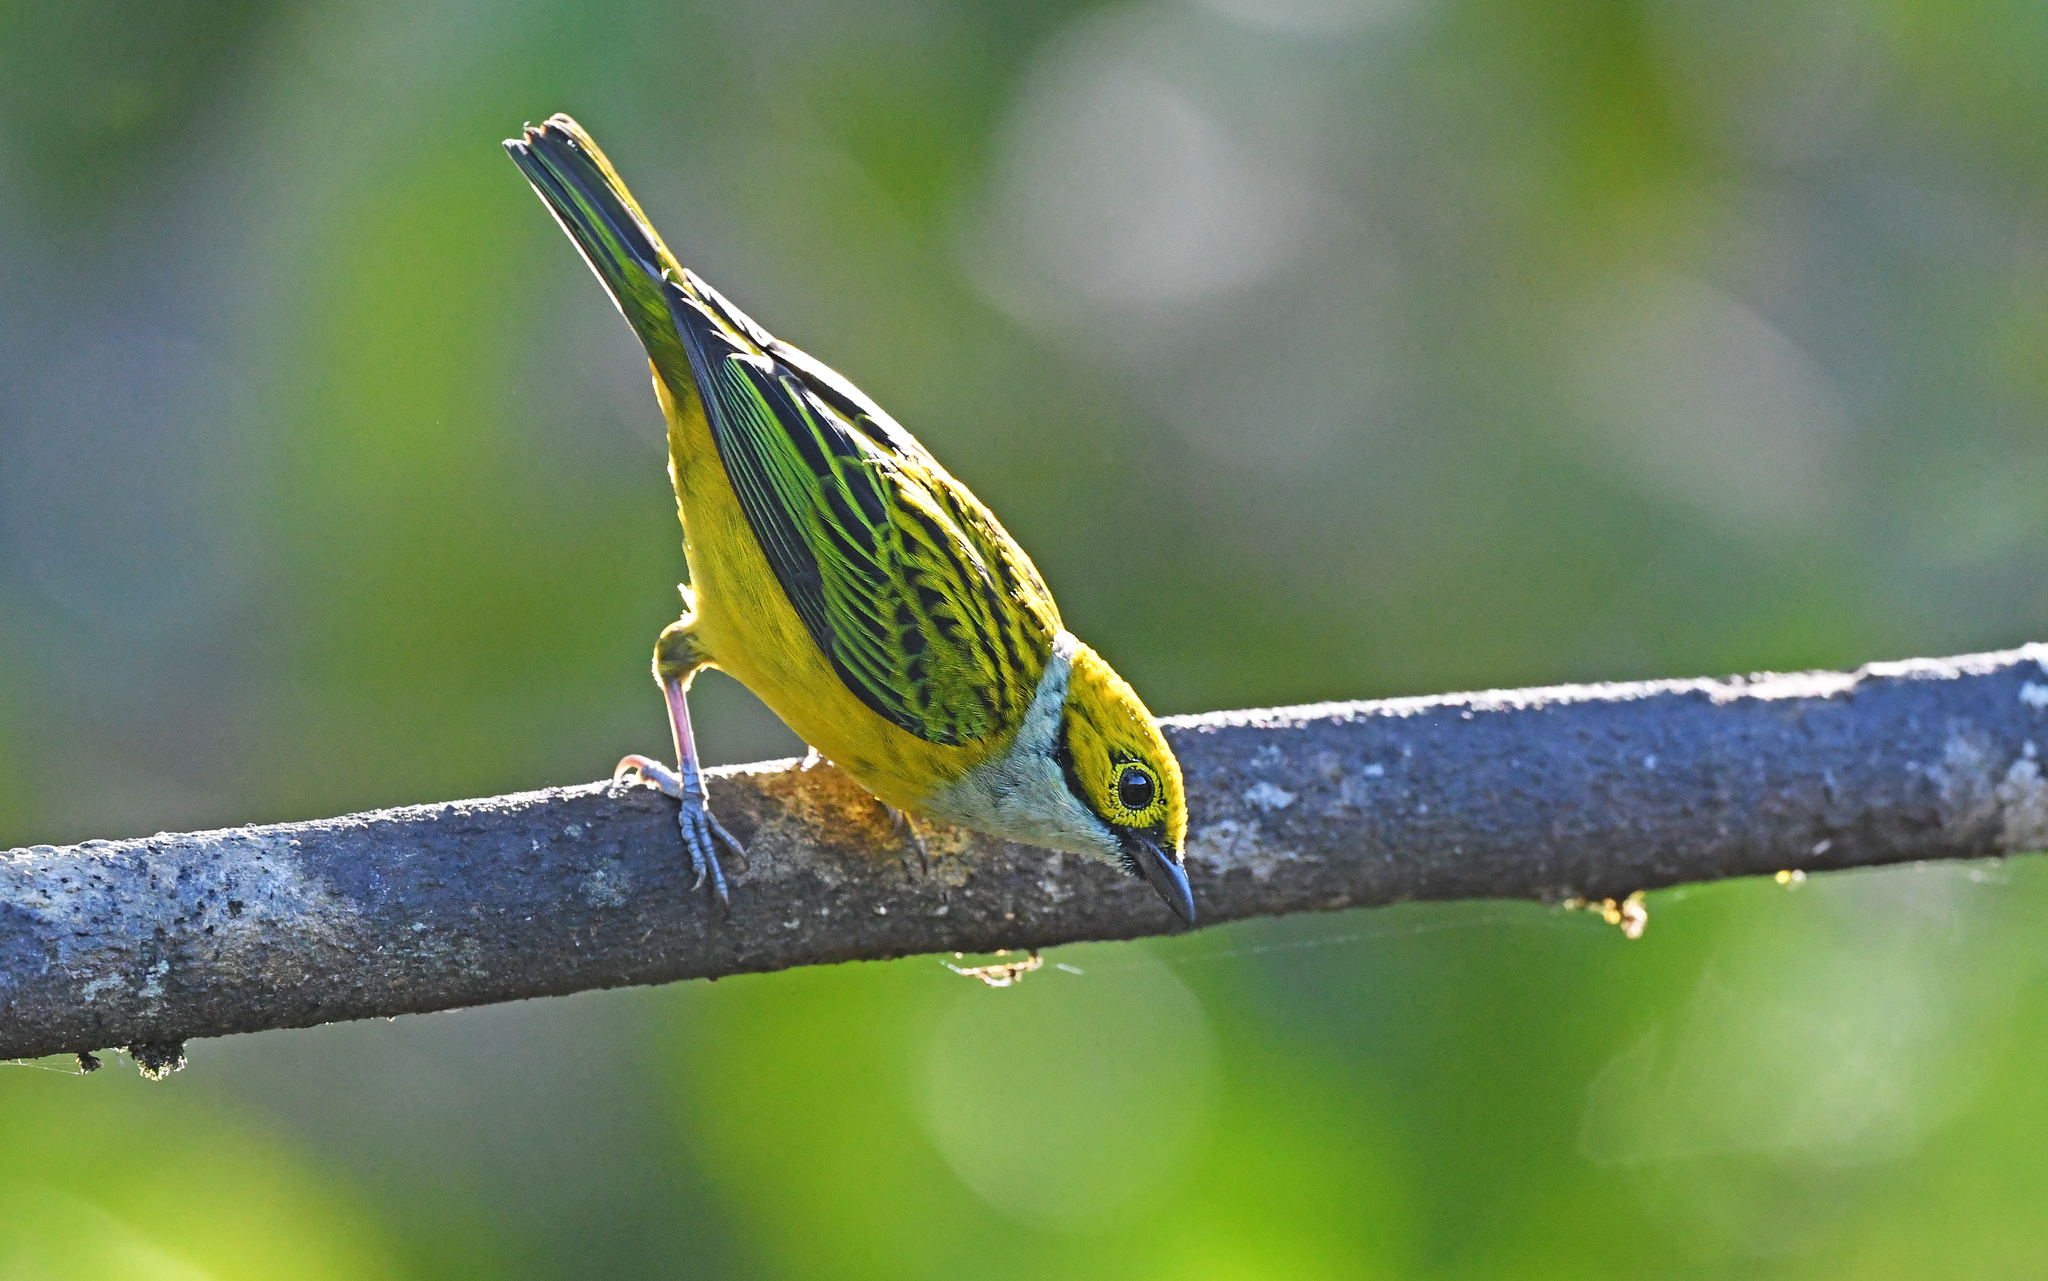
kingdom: Animalia
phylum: Chordata
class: Aves
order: Passeriformes
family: Thraupidae
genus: Tangara
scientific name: Tangara icterocephala
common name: Silver-throated tanager
